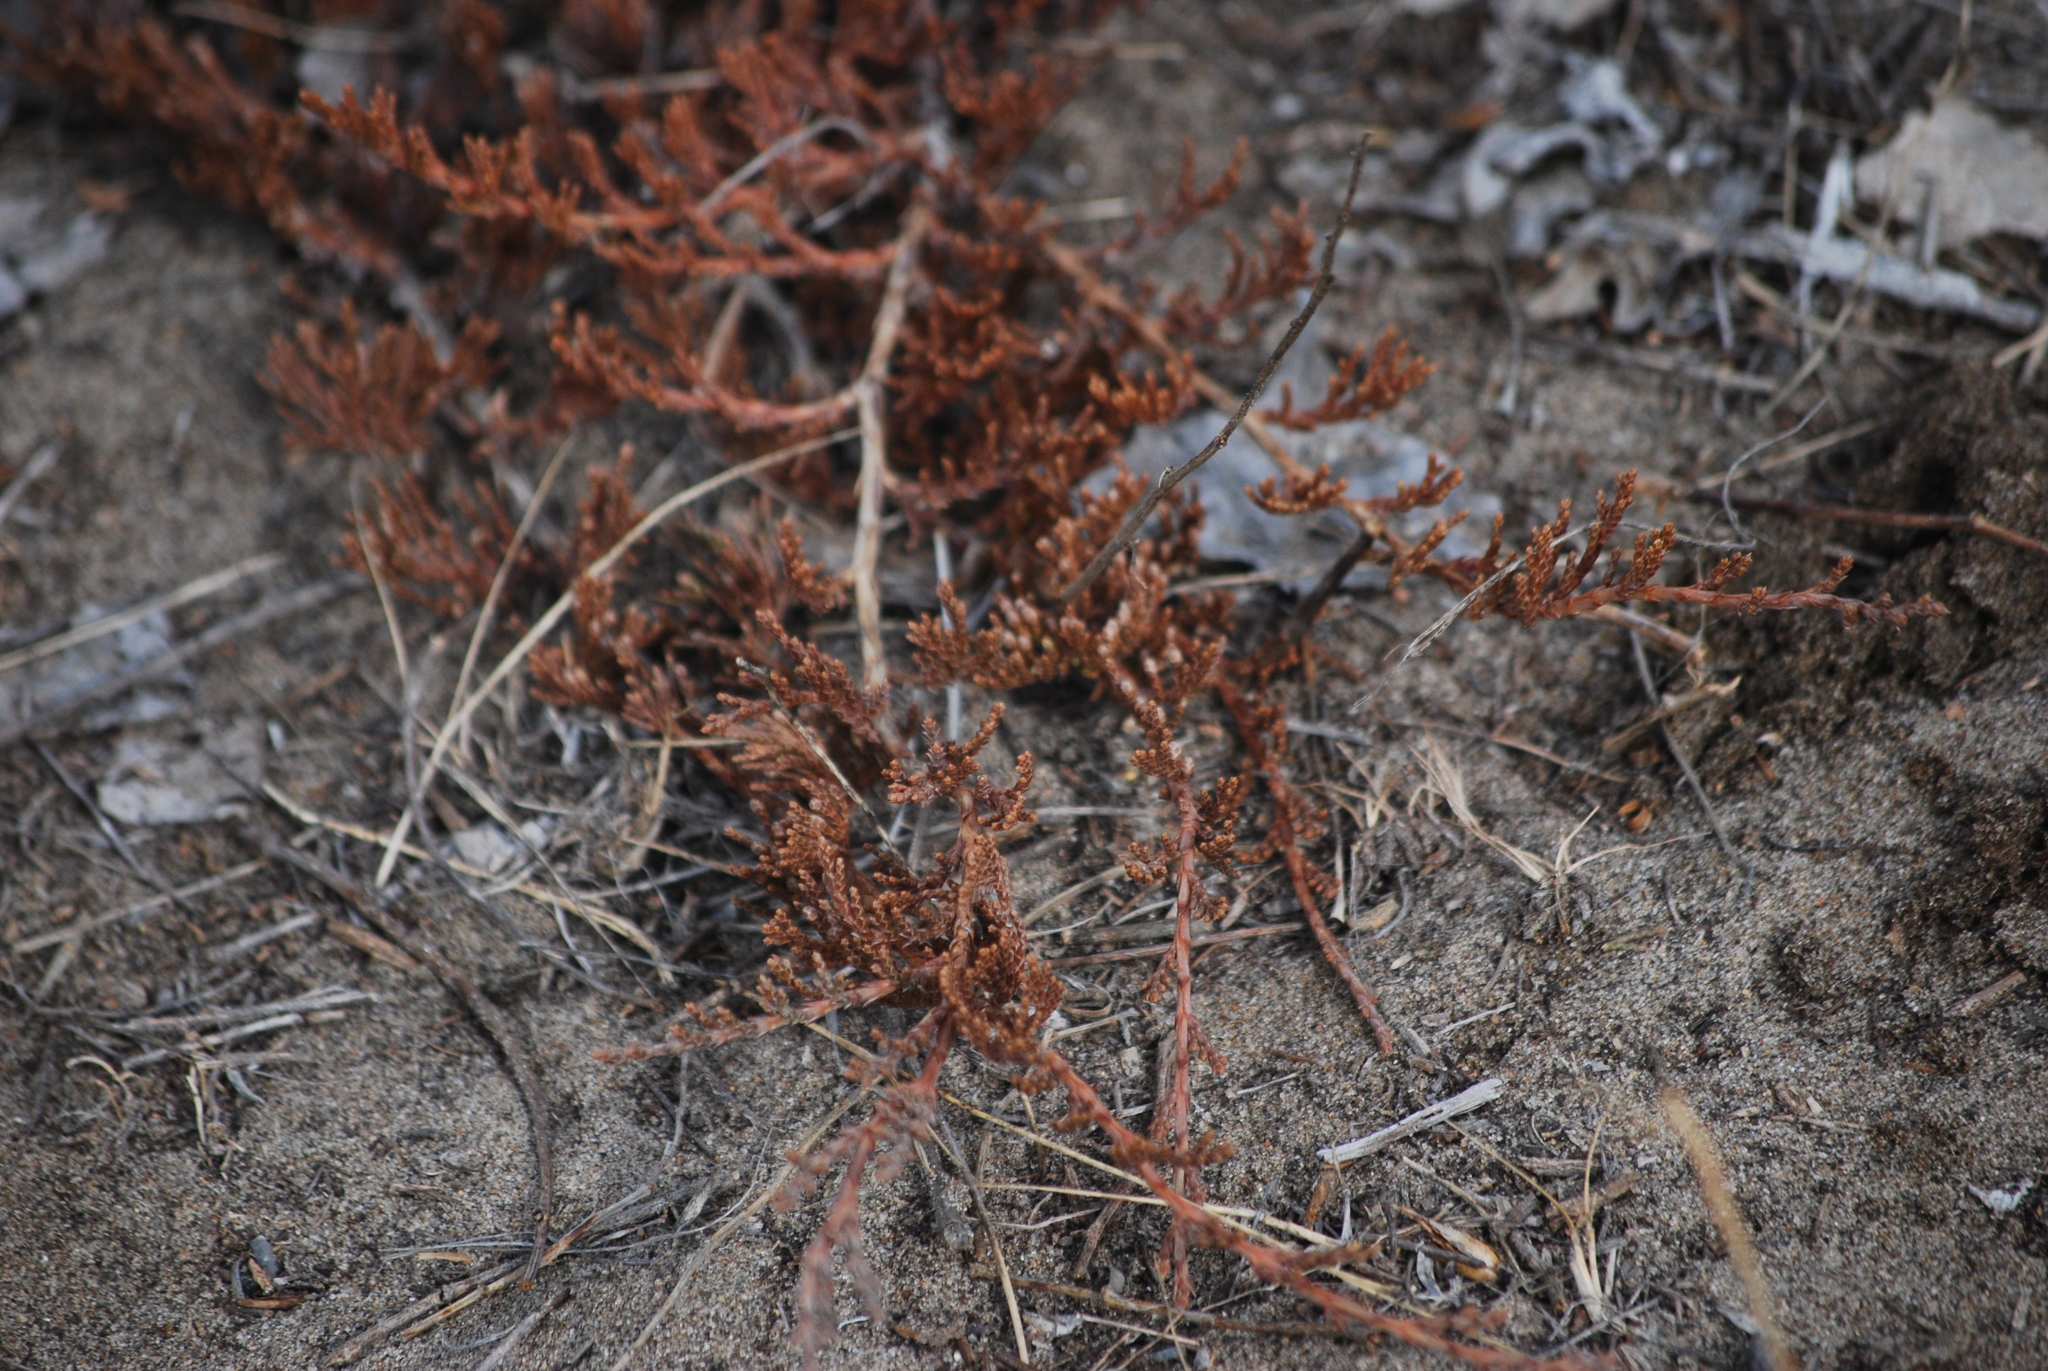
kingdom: Plantae
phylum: Tracheophyta
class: Pinopsida
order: Pinales
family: Cupressaceae
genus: Juniperus
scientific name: Juniperus horizontalis
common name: Creeping juniper
